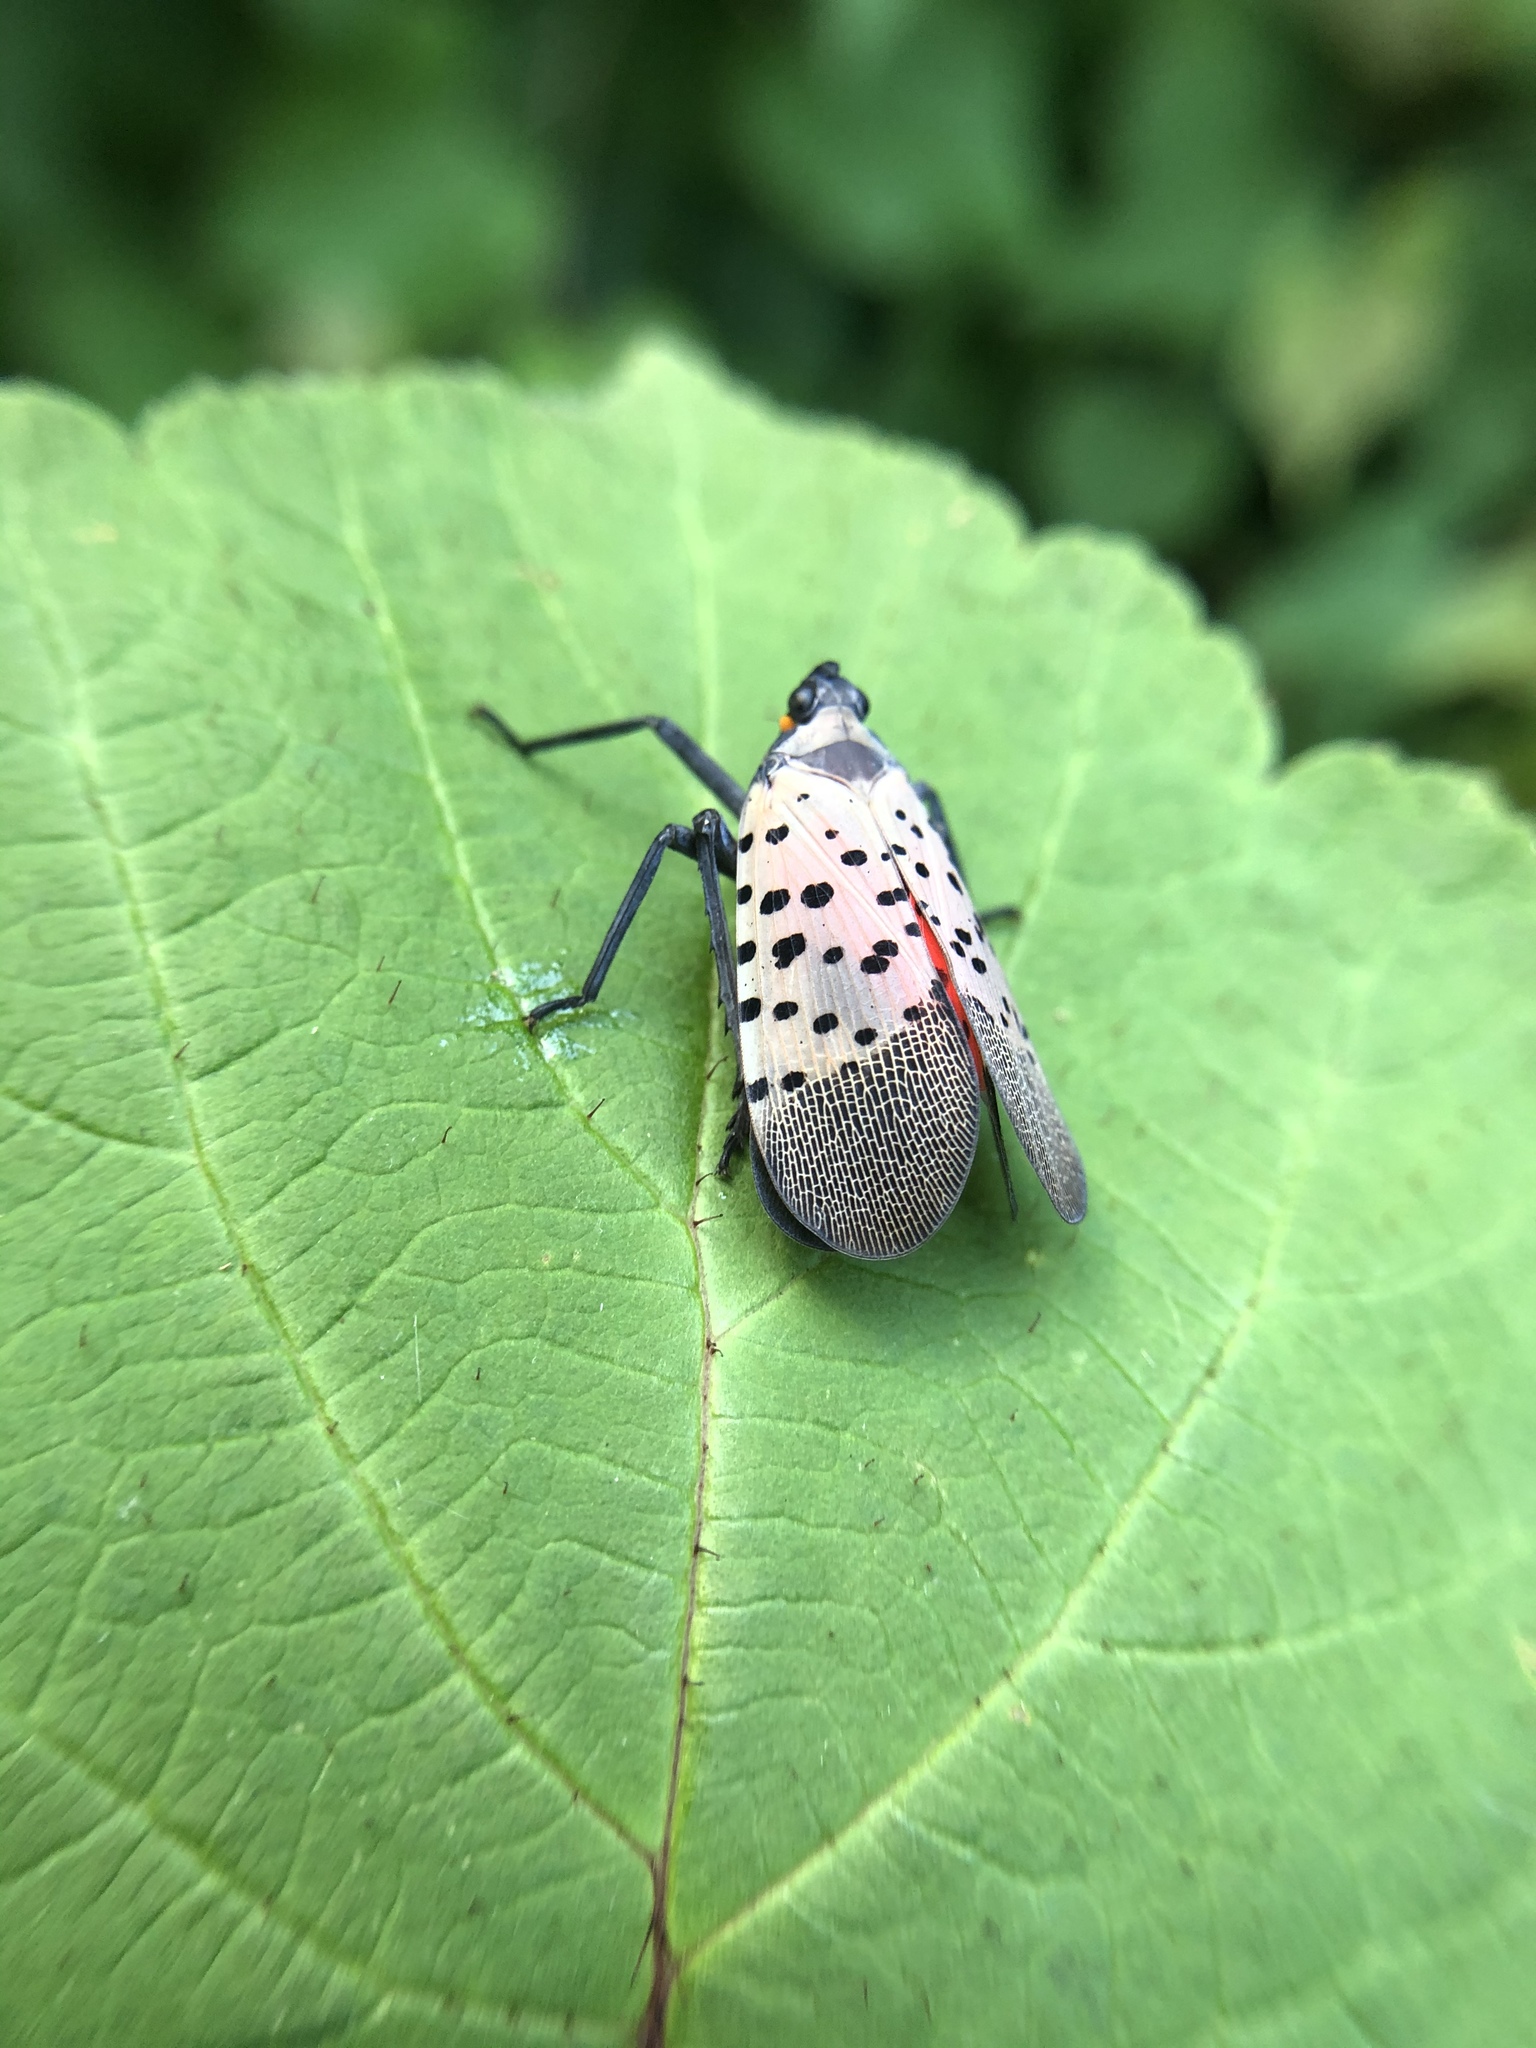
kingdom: Animalia
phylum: Arthropoda
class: Insecta
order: Hemiptera
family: Fulgoridae
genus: Lycorma
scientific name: Lycorma delicatula
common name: Spotted lanternfly
